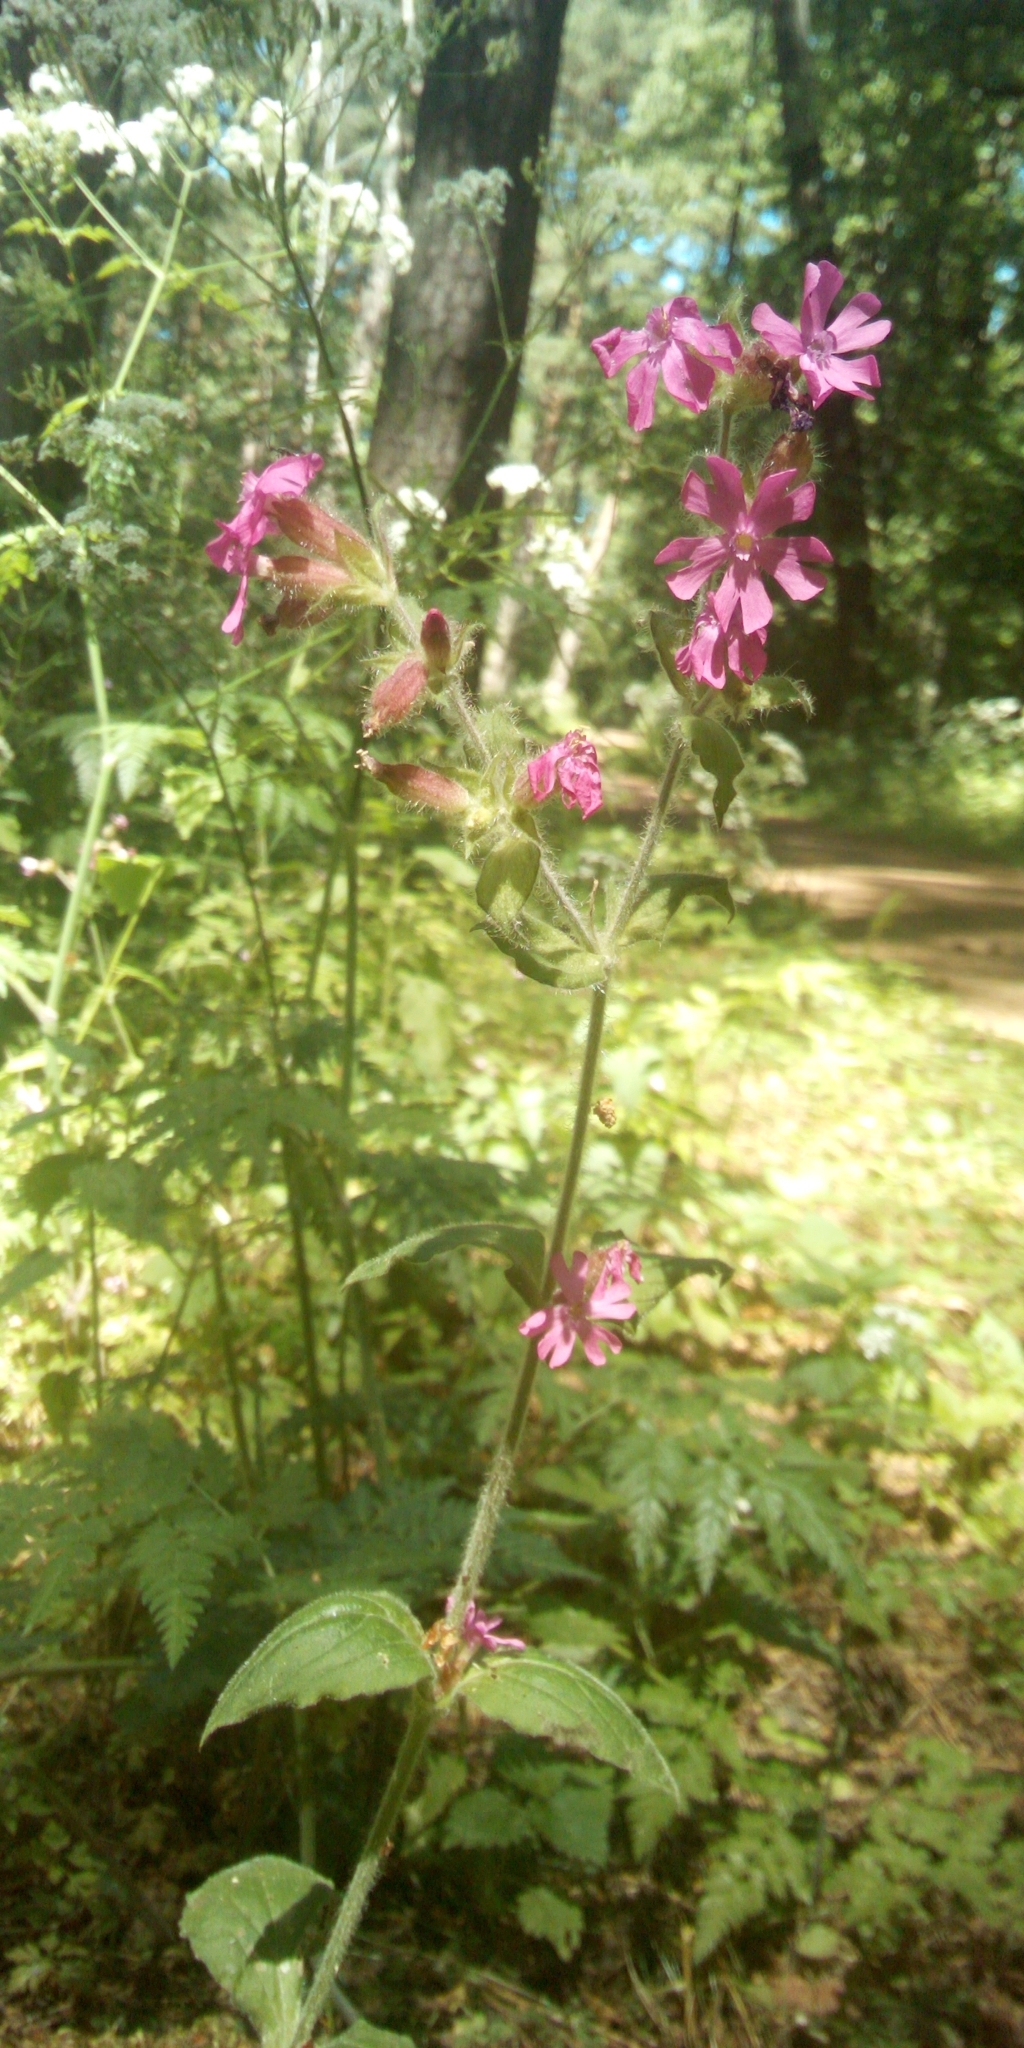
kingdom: Plantae
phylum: Tracheophyta
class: Magnoliopsida
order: Caryophyllales
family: Caryophyllaceae
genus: Silene
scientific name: Silene dioica
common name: Red campion
